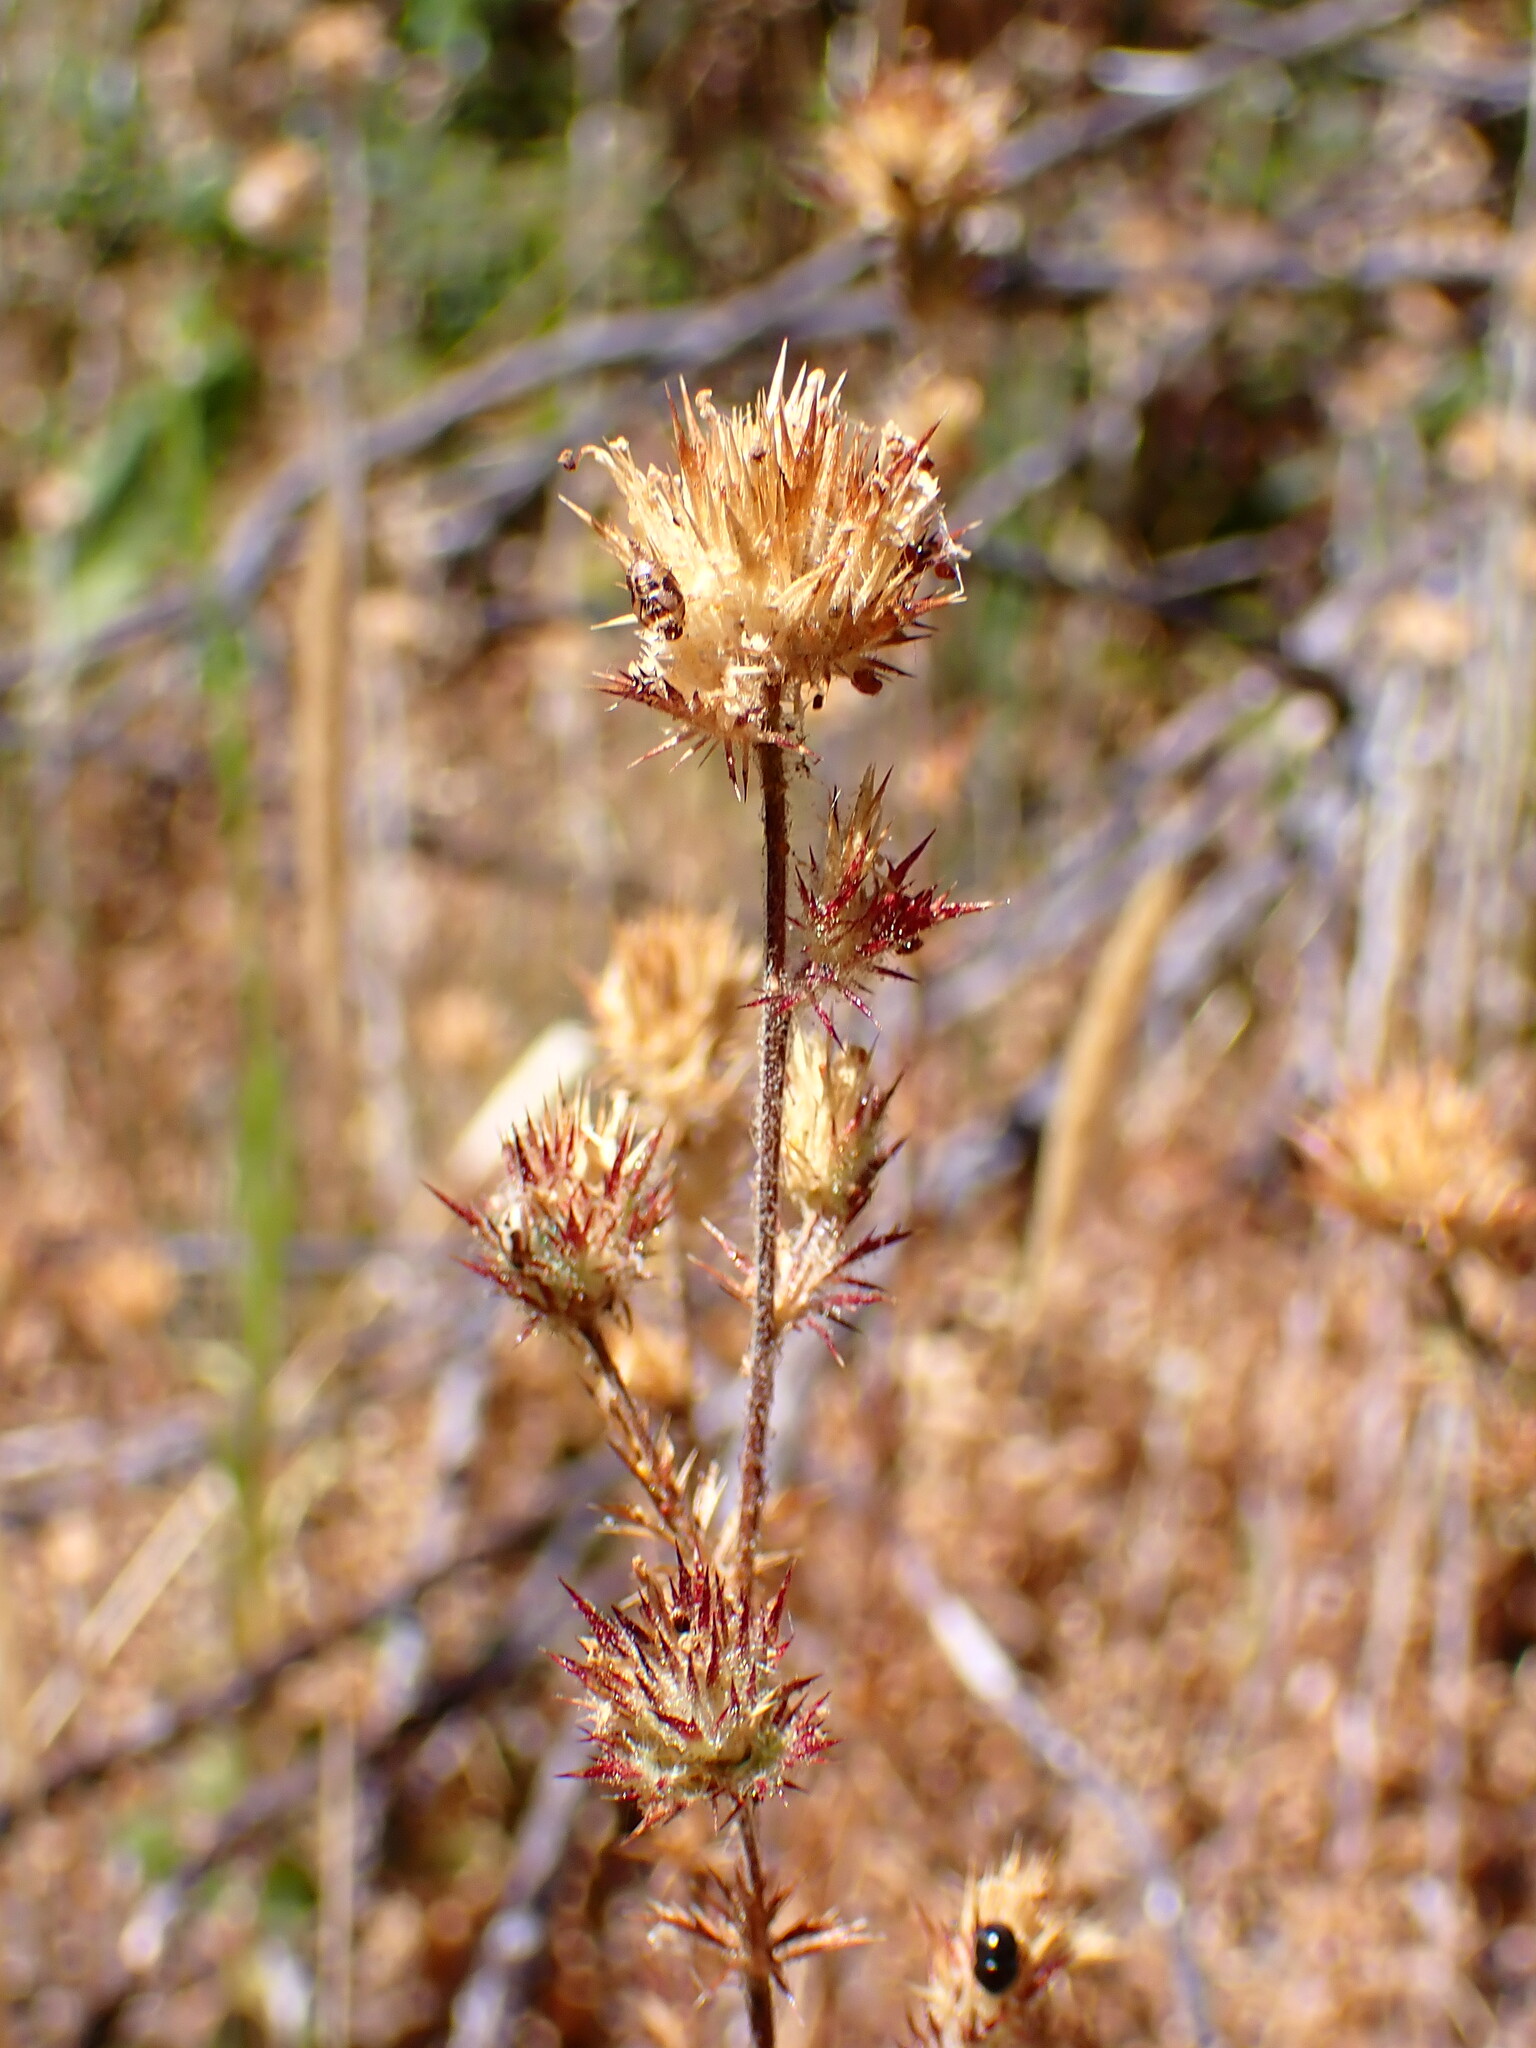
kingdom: Plantae
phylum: Tracheophyta
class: Magnoliopsida
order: Ericales
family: Polemoniaceae
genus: Navarretia
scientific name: Navarretia squarrosa
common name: Skunkweed
